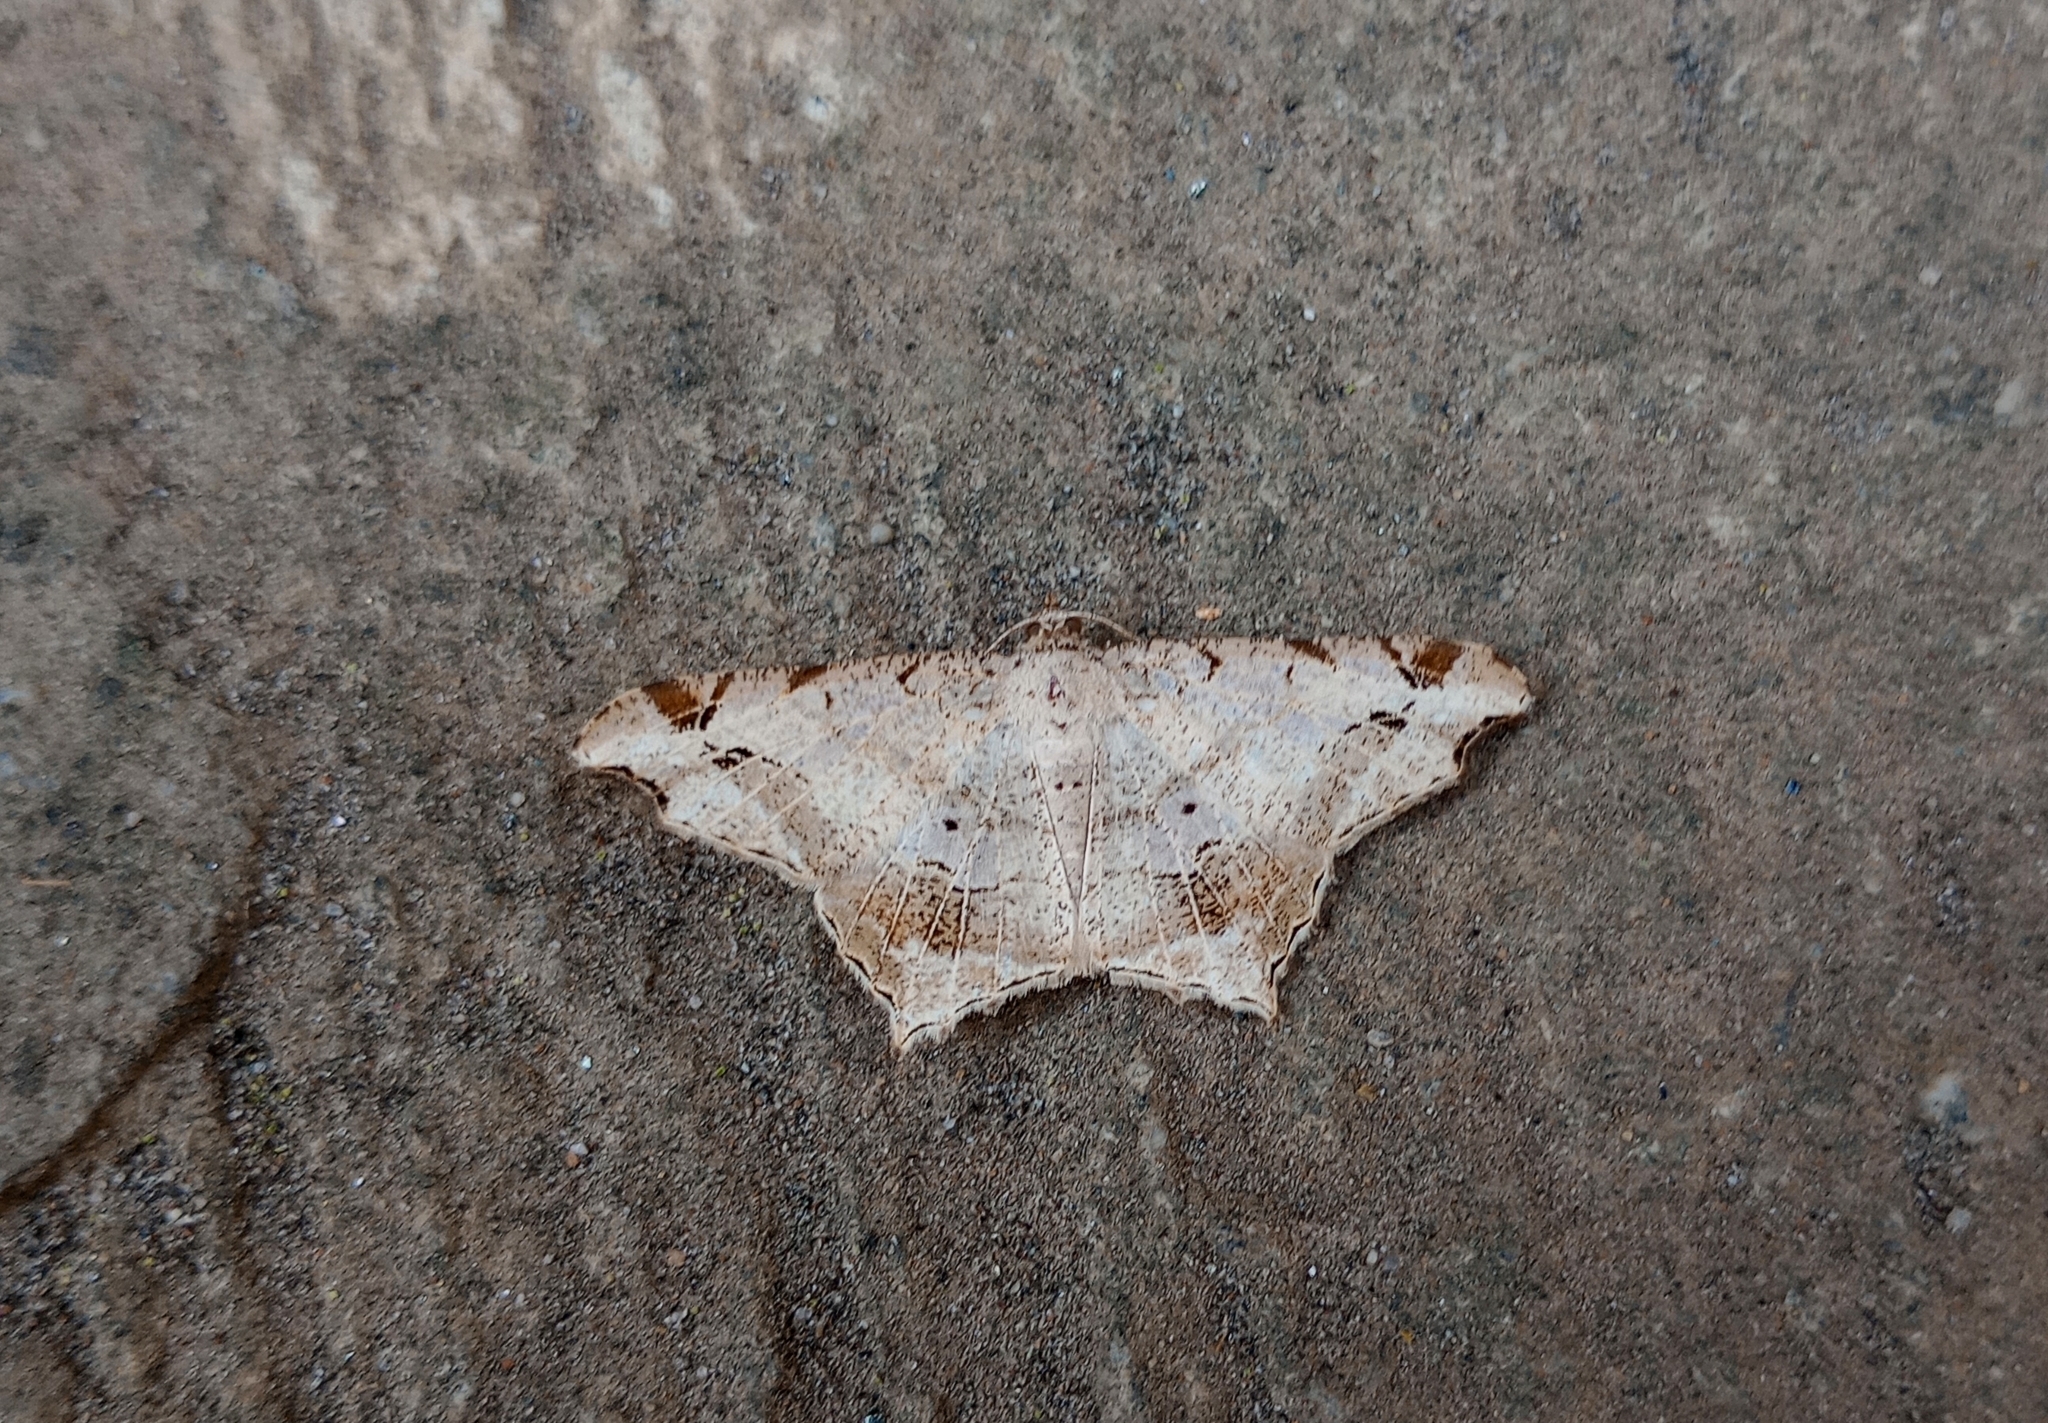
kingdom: Animalia
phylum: Arthropoda
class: Insecta
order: Lepidoptera
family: Geometridae
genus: Chiasmia
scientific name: Chiasmia emersaria
